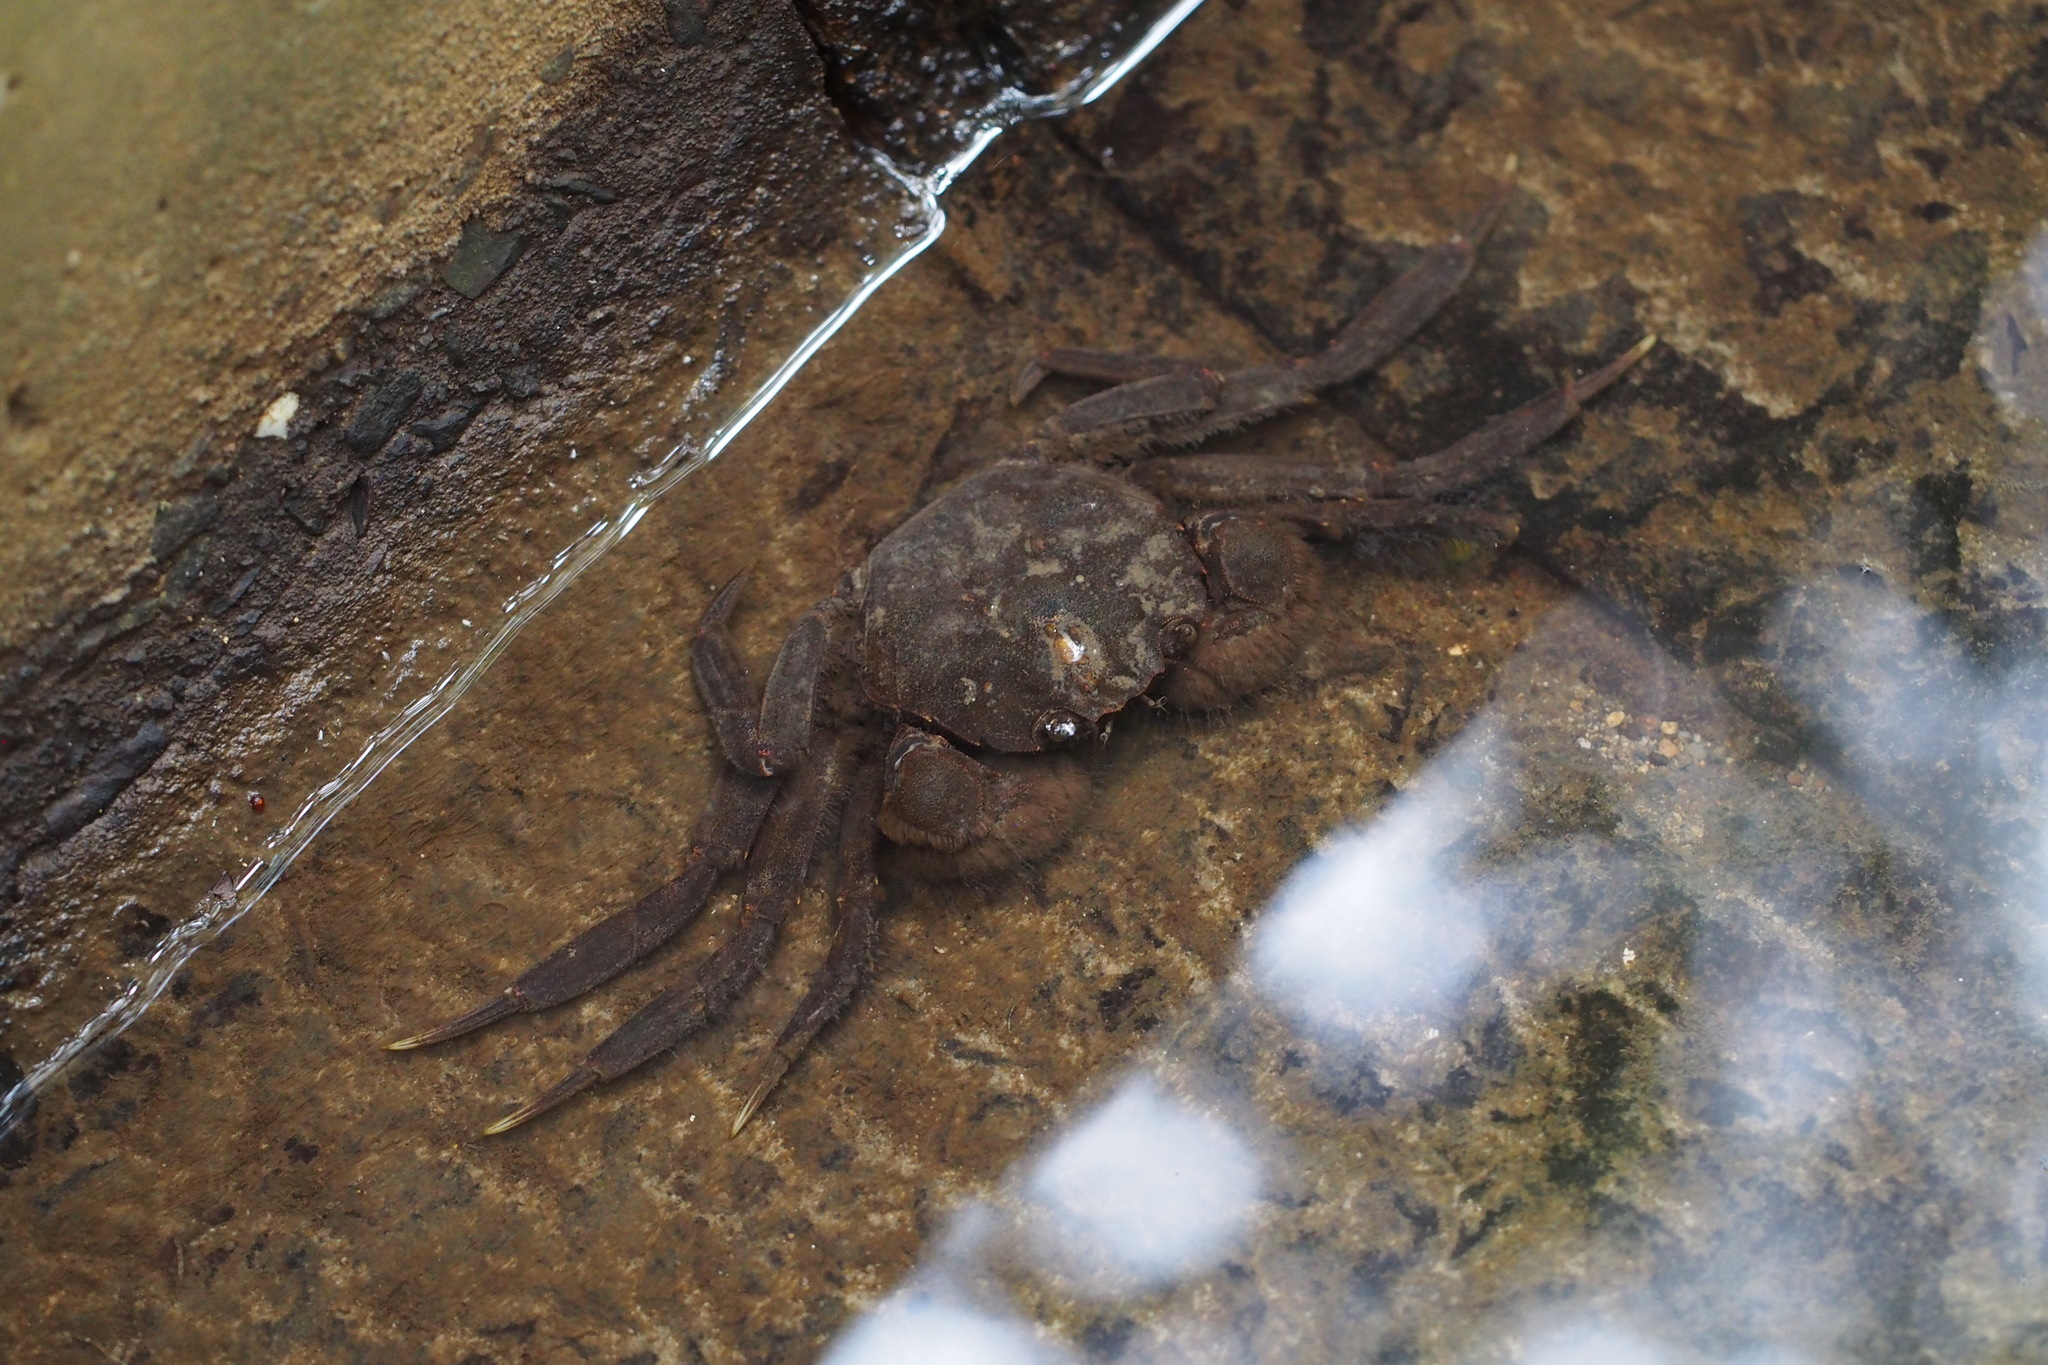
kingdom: Animalia
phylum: Arthropoda
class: Malacostraca
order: Decapoda
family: Varunidae
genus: Eriocheir
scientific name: Eriocheir japonica
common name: Japanese mitten crab
